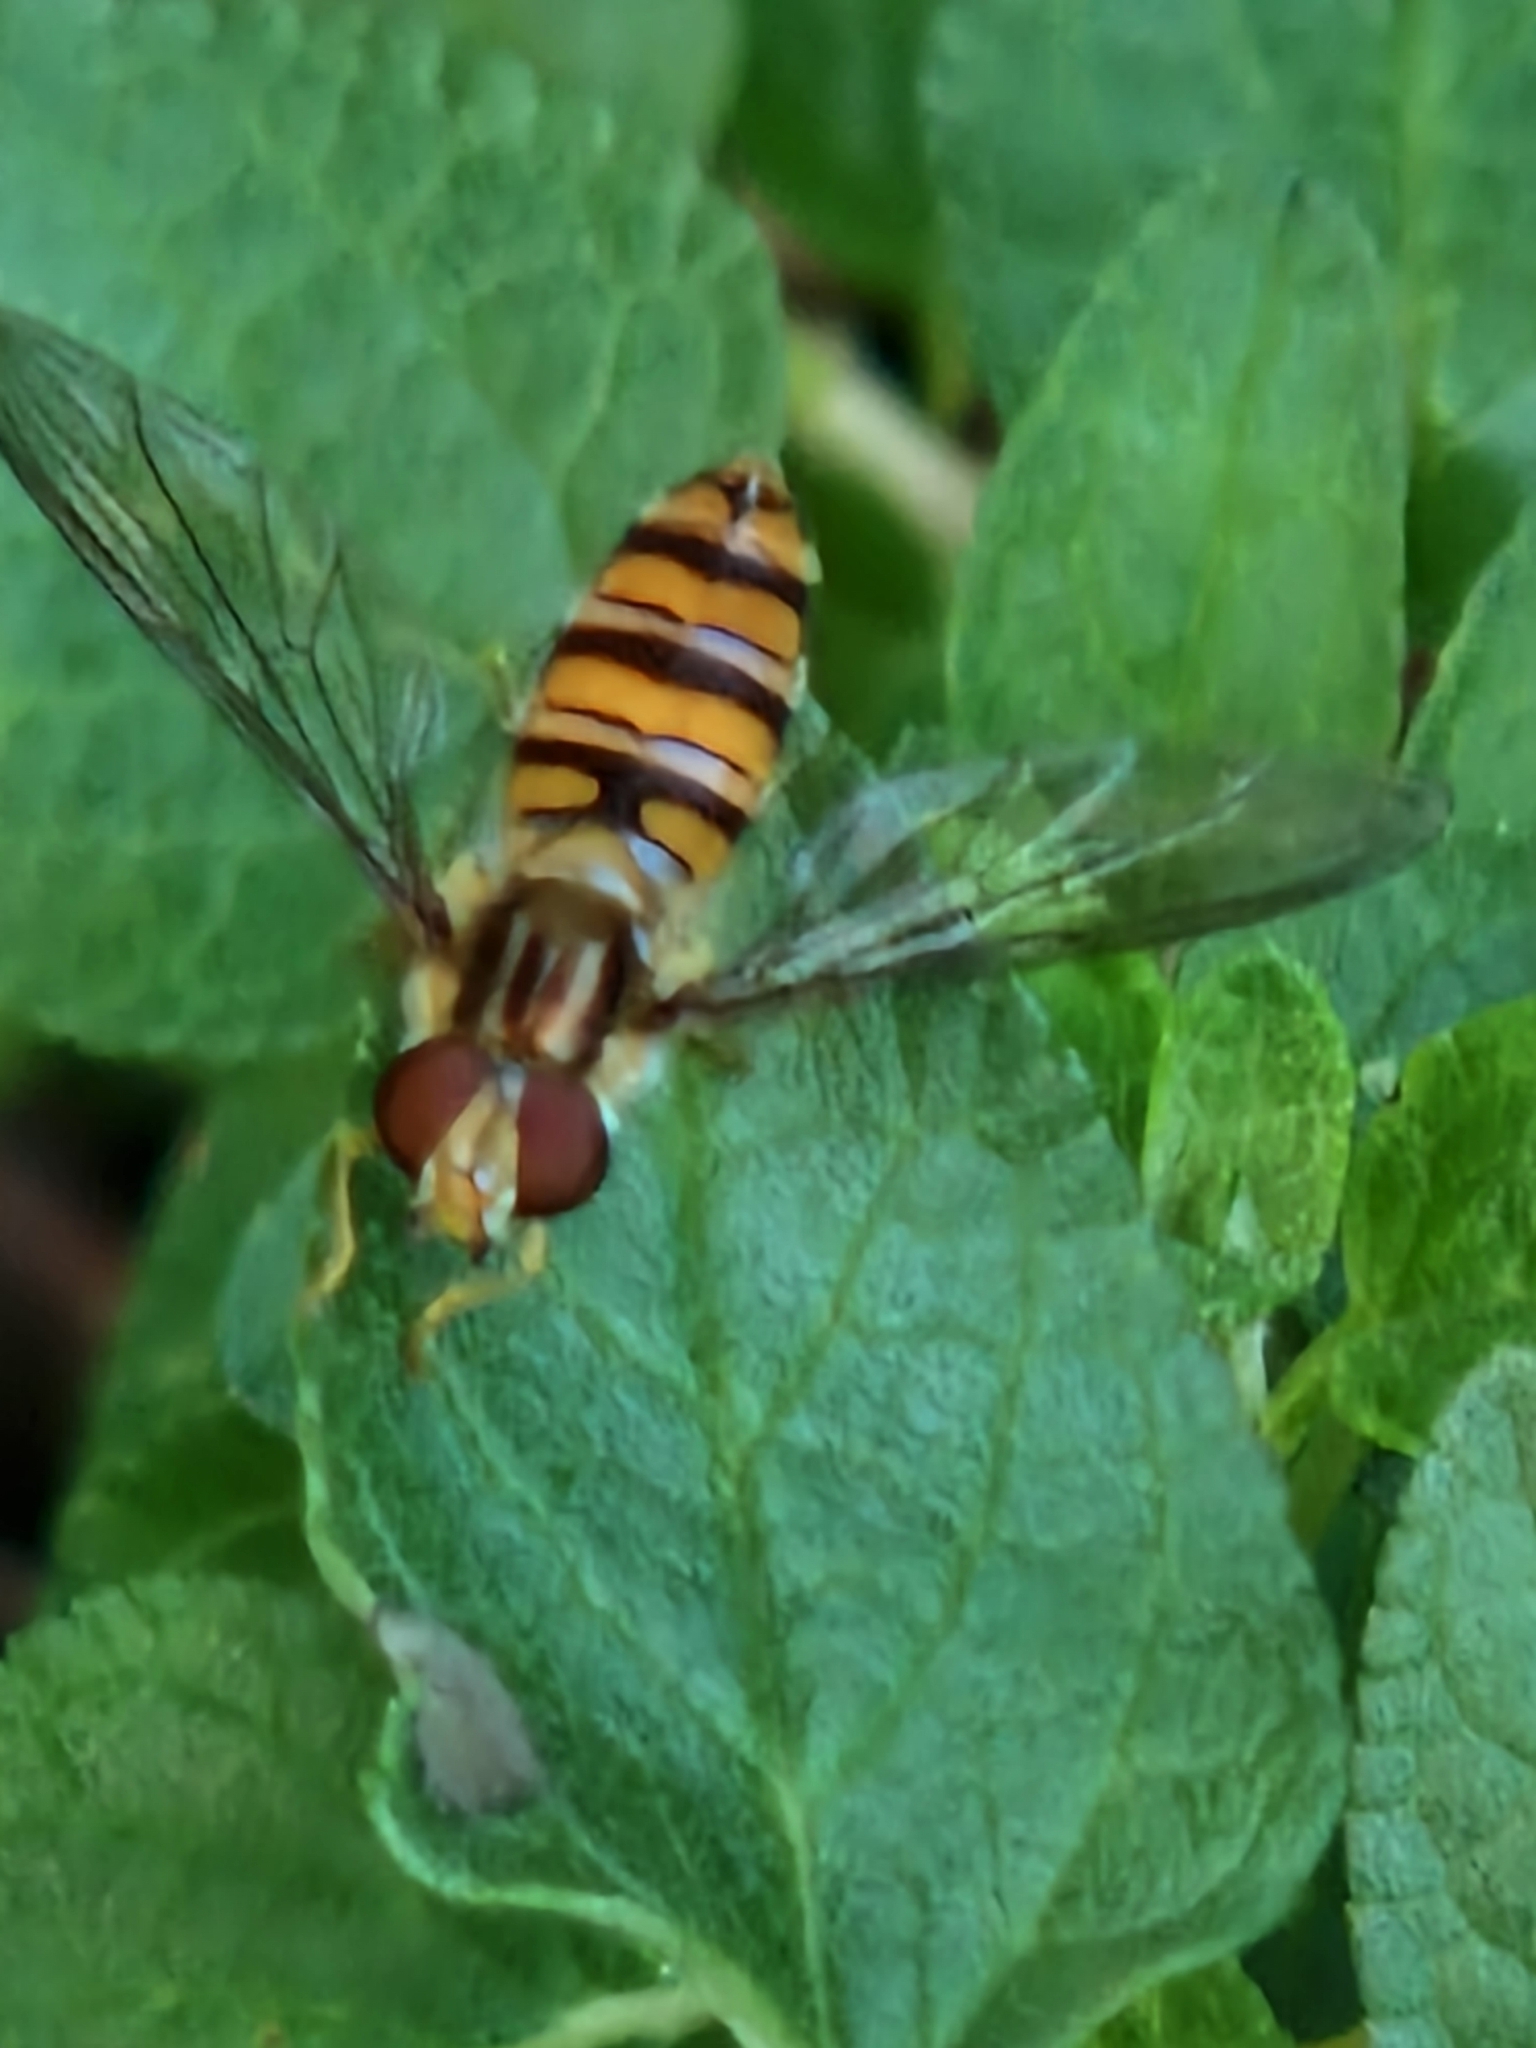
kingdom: Animalia
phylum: Arthropoda
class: Insecta
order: Diptera
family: Syrphidae
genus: Episyrphus
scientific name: Episyrphus balteatus
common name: Marmalade hoverfly
